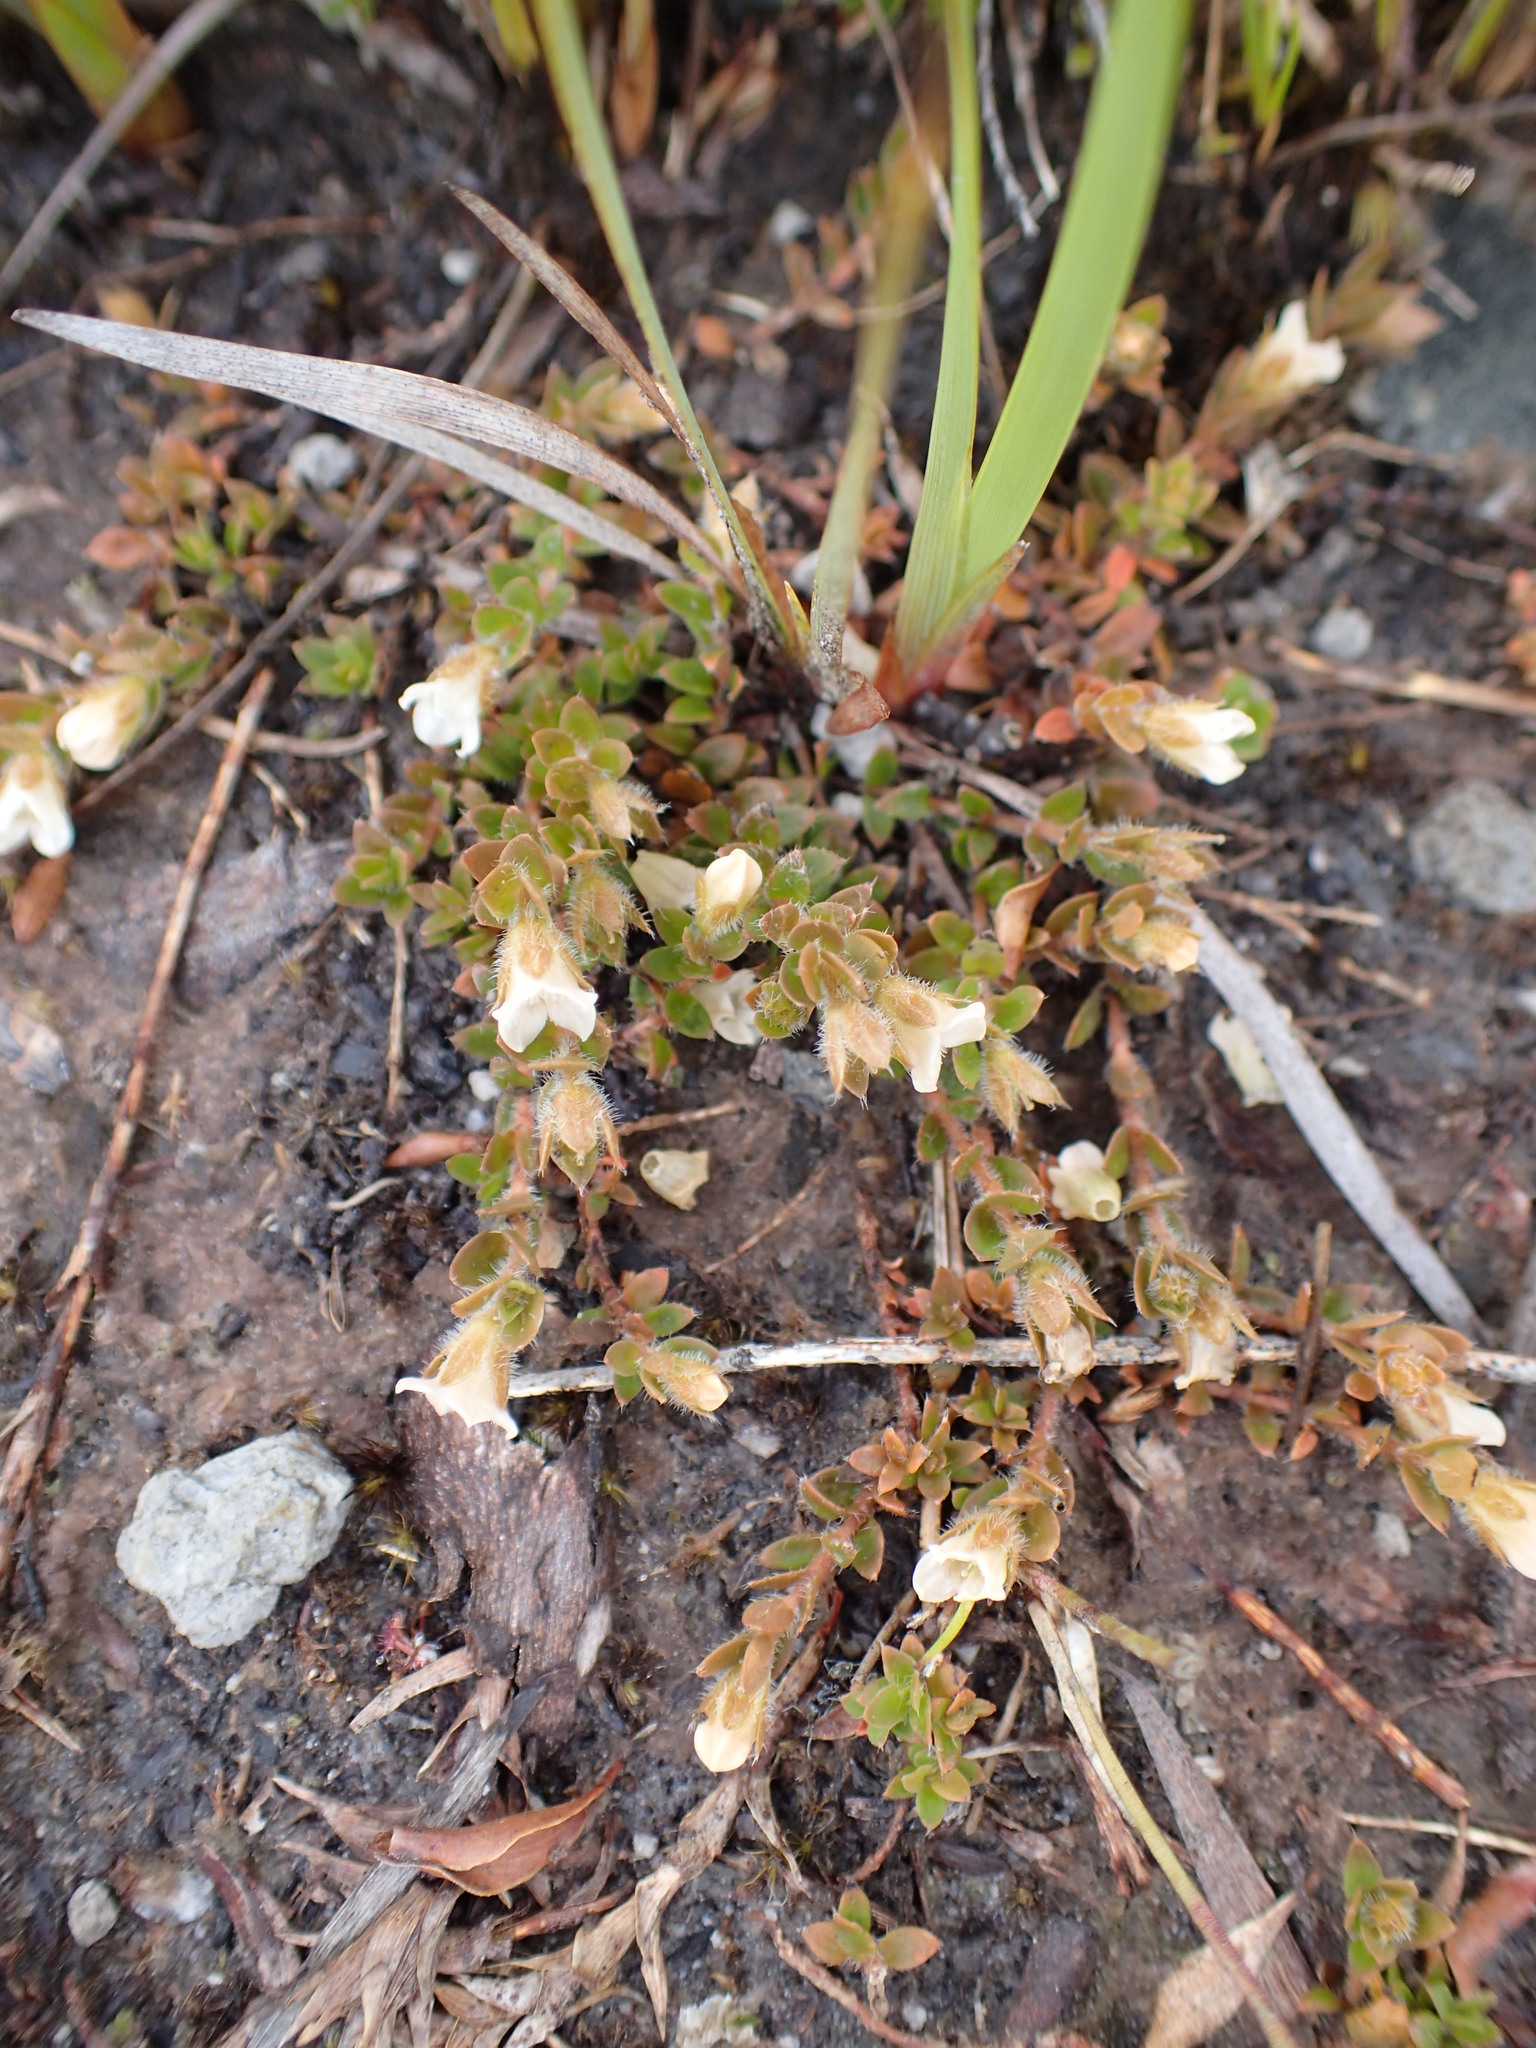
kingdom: Plantae
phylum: Tracheophyta
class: Magnoliopsida
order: Gentianales
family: Loganiaceae
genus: Mitrasacme
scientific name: Mitrasacme pilosa
